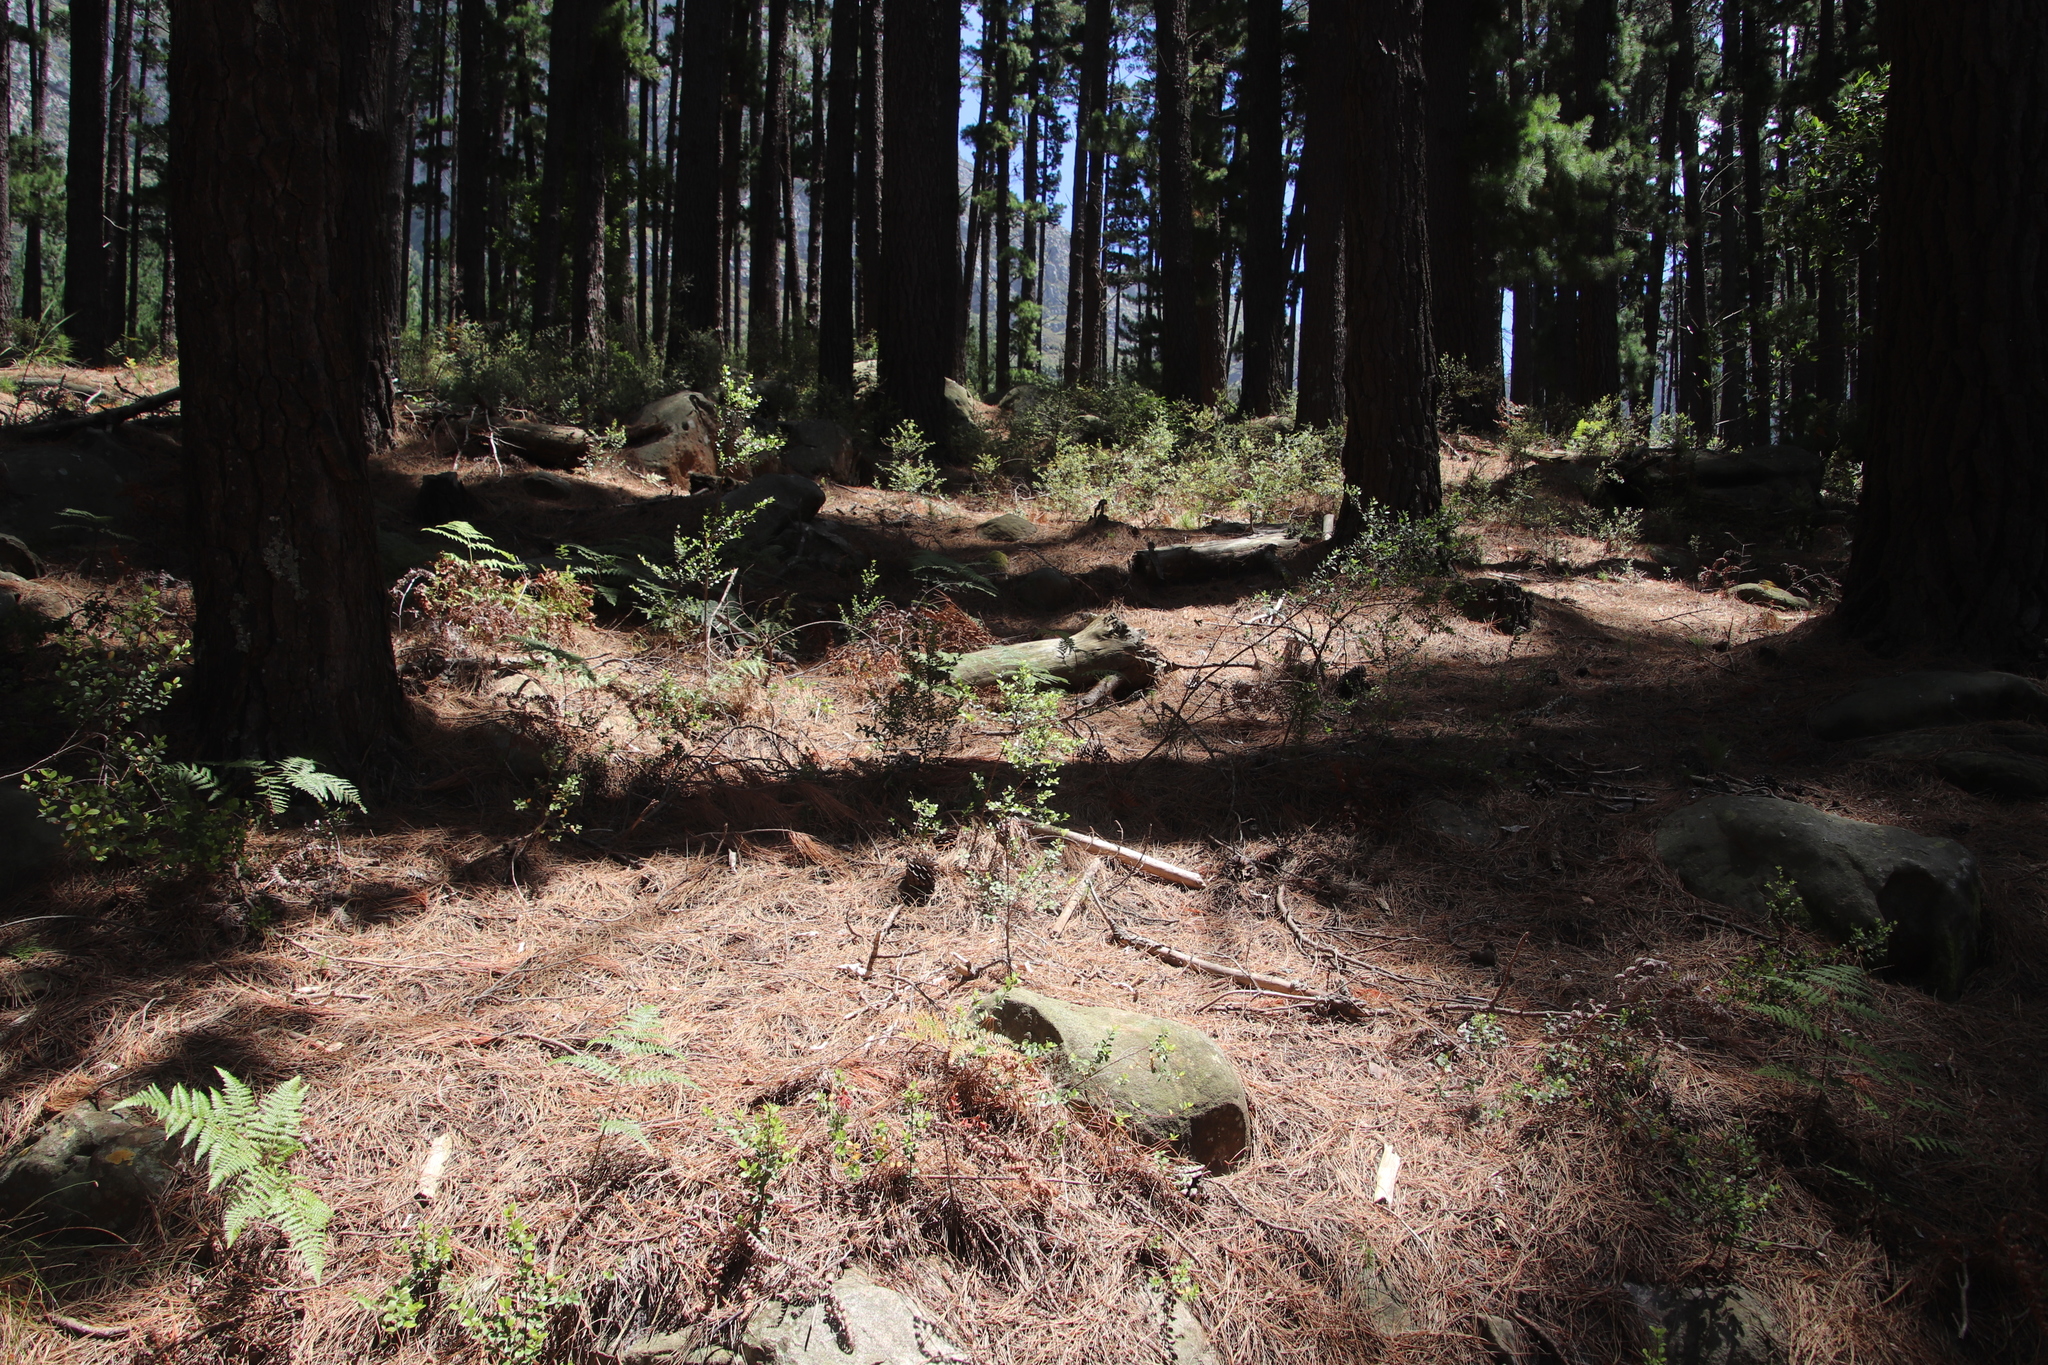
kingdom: Plantae
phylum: Tracheophyta
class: Magnoliopsida
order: Ericales
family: Primulaceae
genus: Myrsine
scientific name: Myrsine africana
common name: African-boxwood
